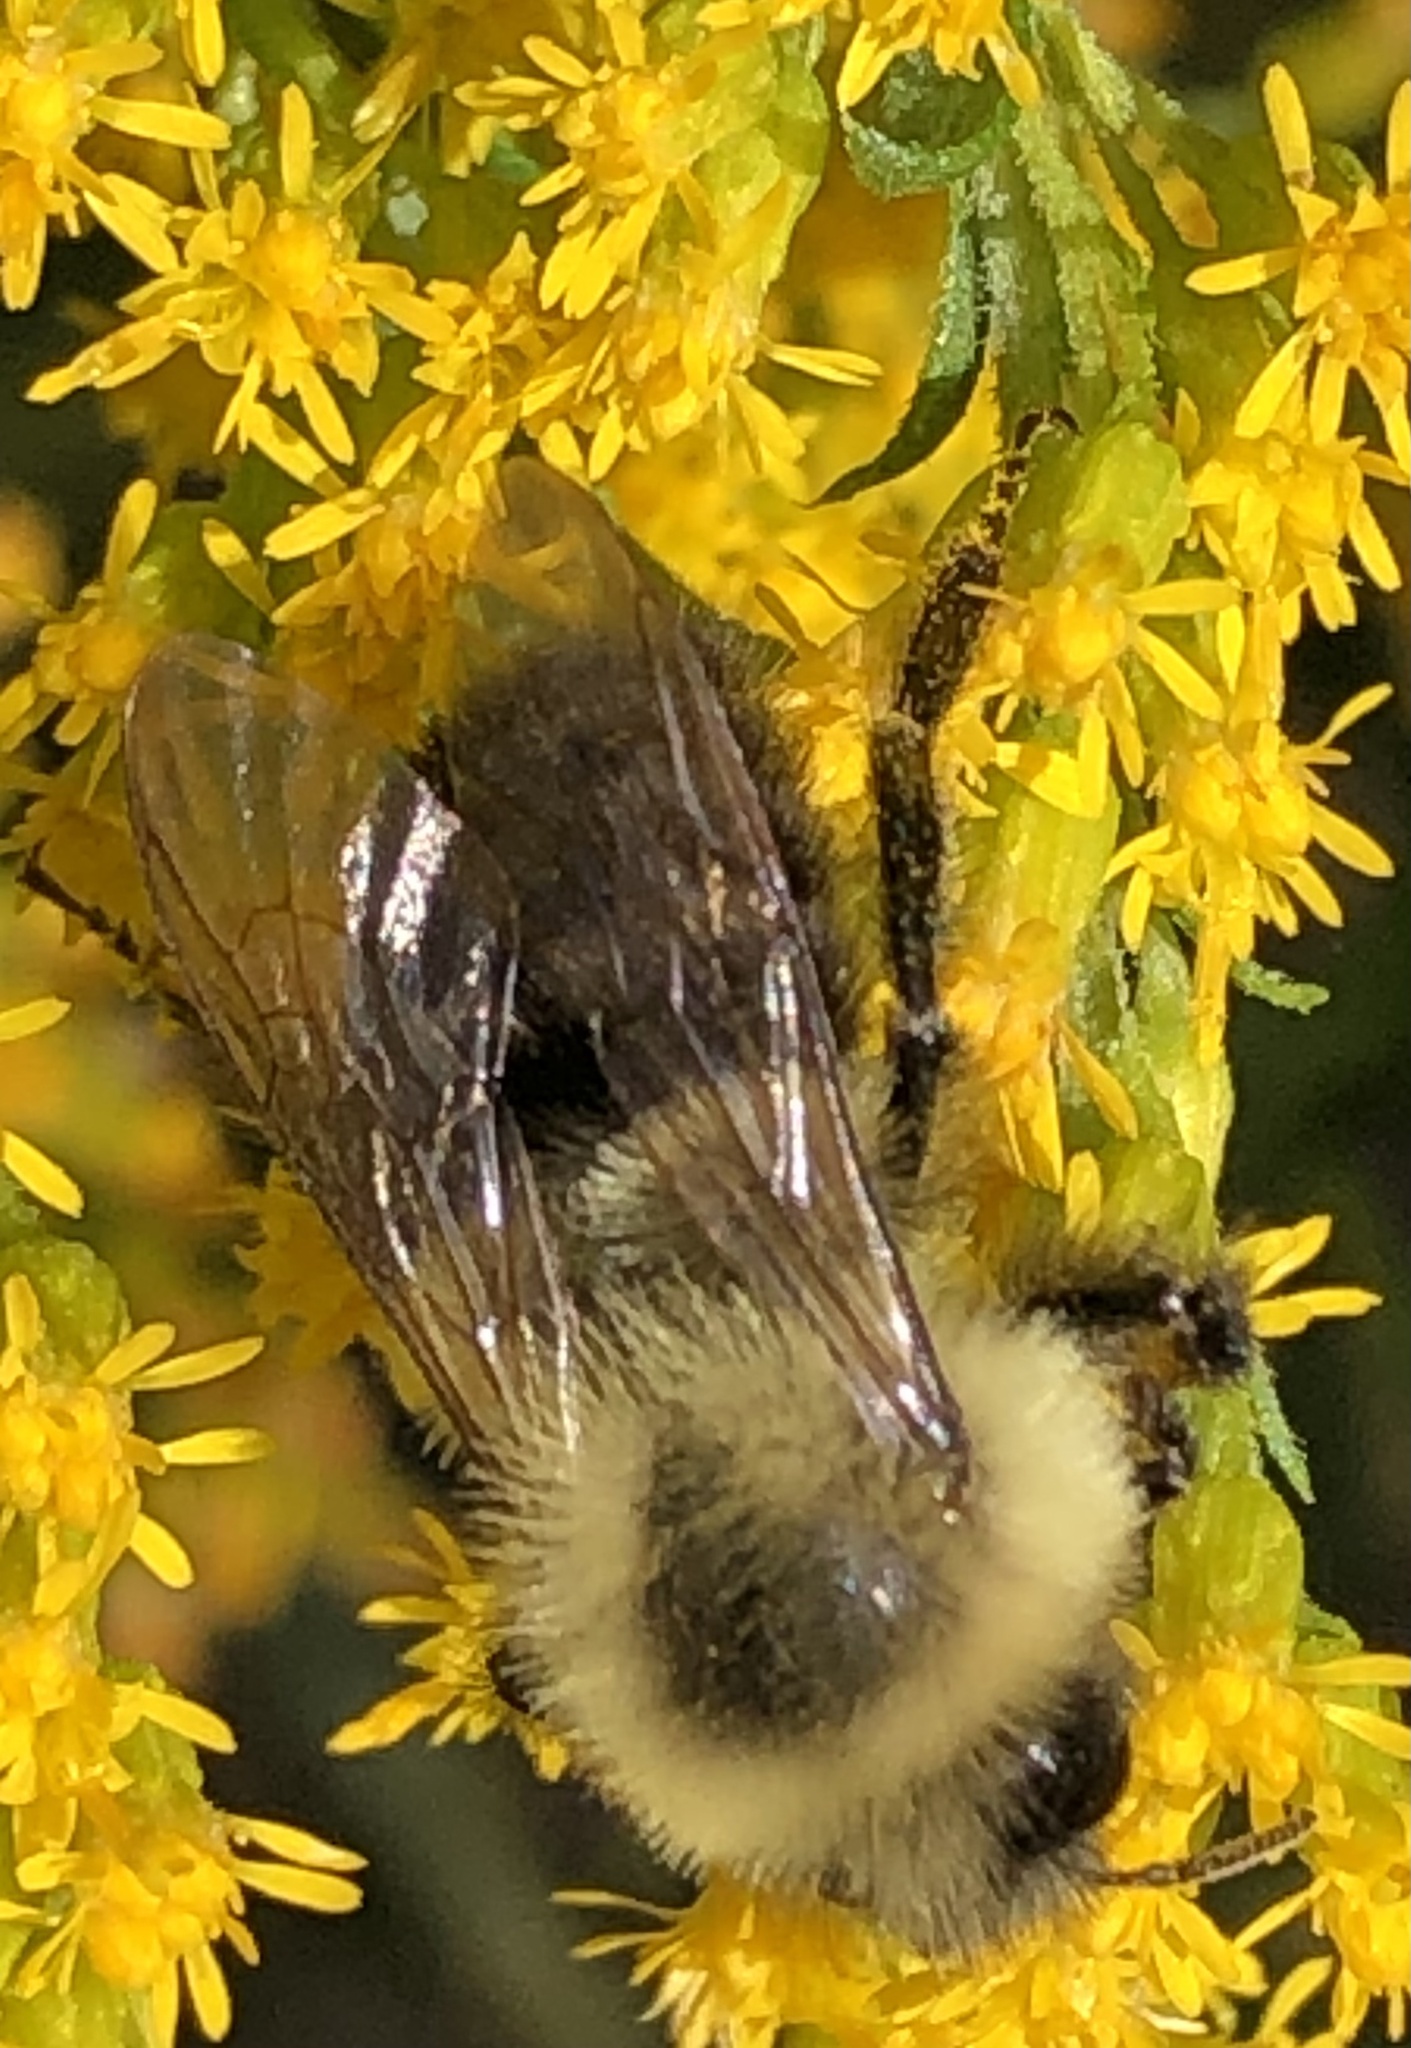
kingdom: Animalia
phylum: Arthropoda
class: Insecta
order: Hymenoptera
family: Apidae
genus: Bombus
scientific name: Bombus impatiens
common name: Common eastern bumble bee
